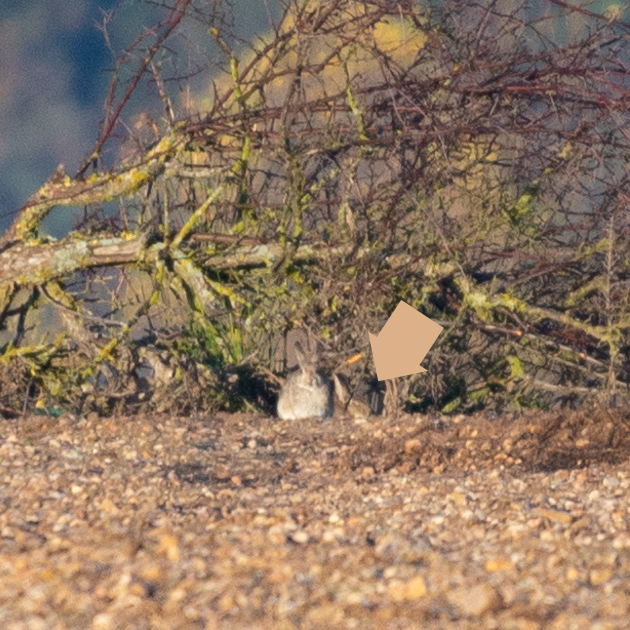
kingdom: Animalia
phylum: Chordata
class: Mammalia
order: Lagomorpha
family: Leporidae
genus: Oryctolagus
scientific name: Oryctolagus cuniculus
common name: European rabbit
